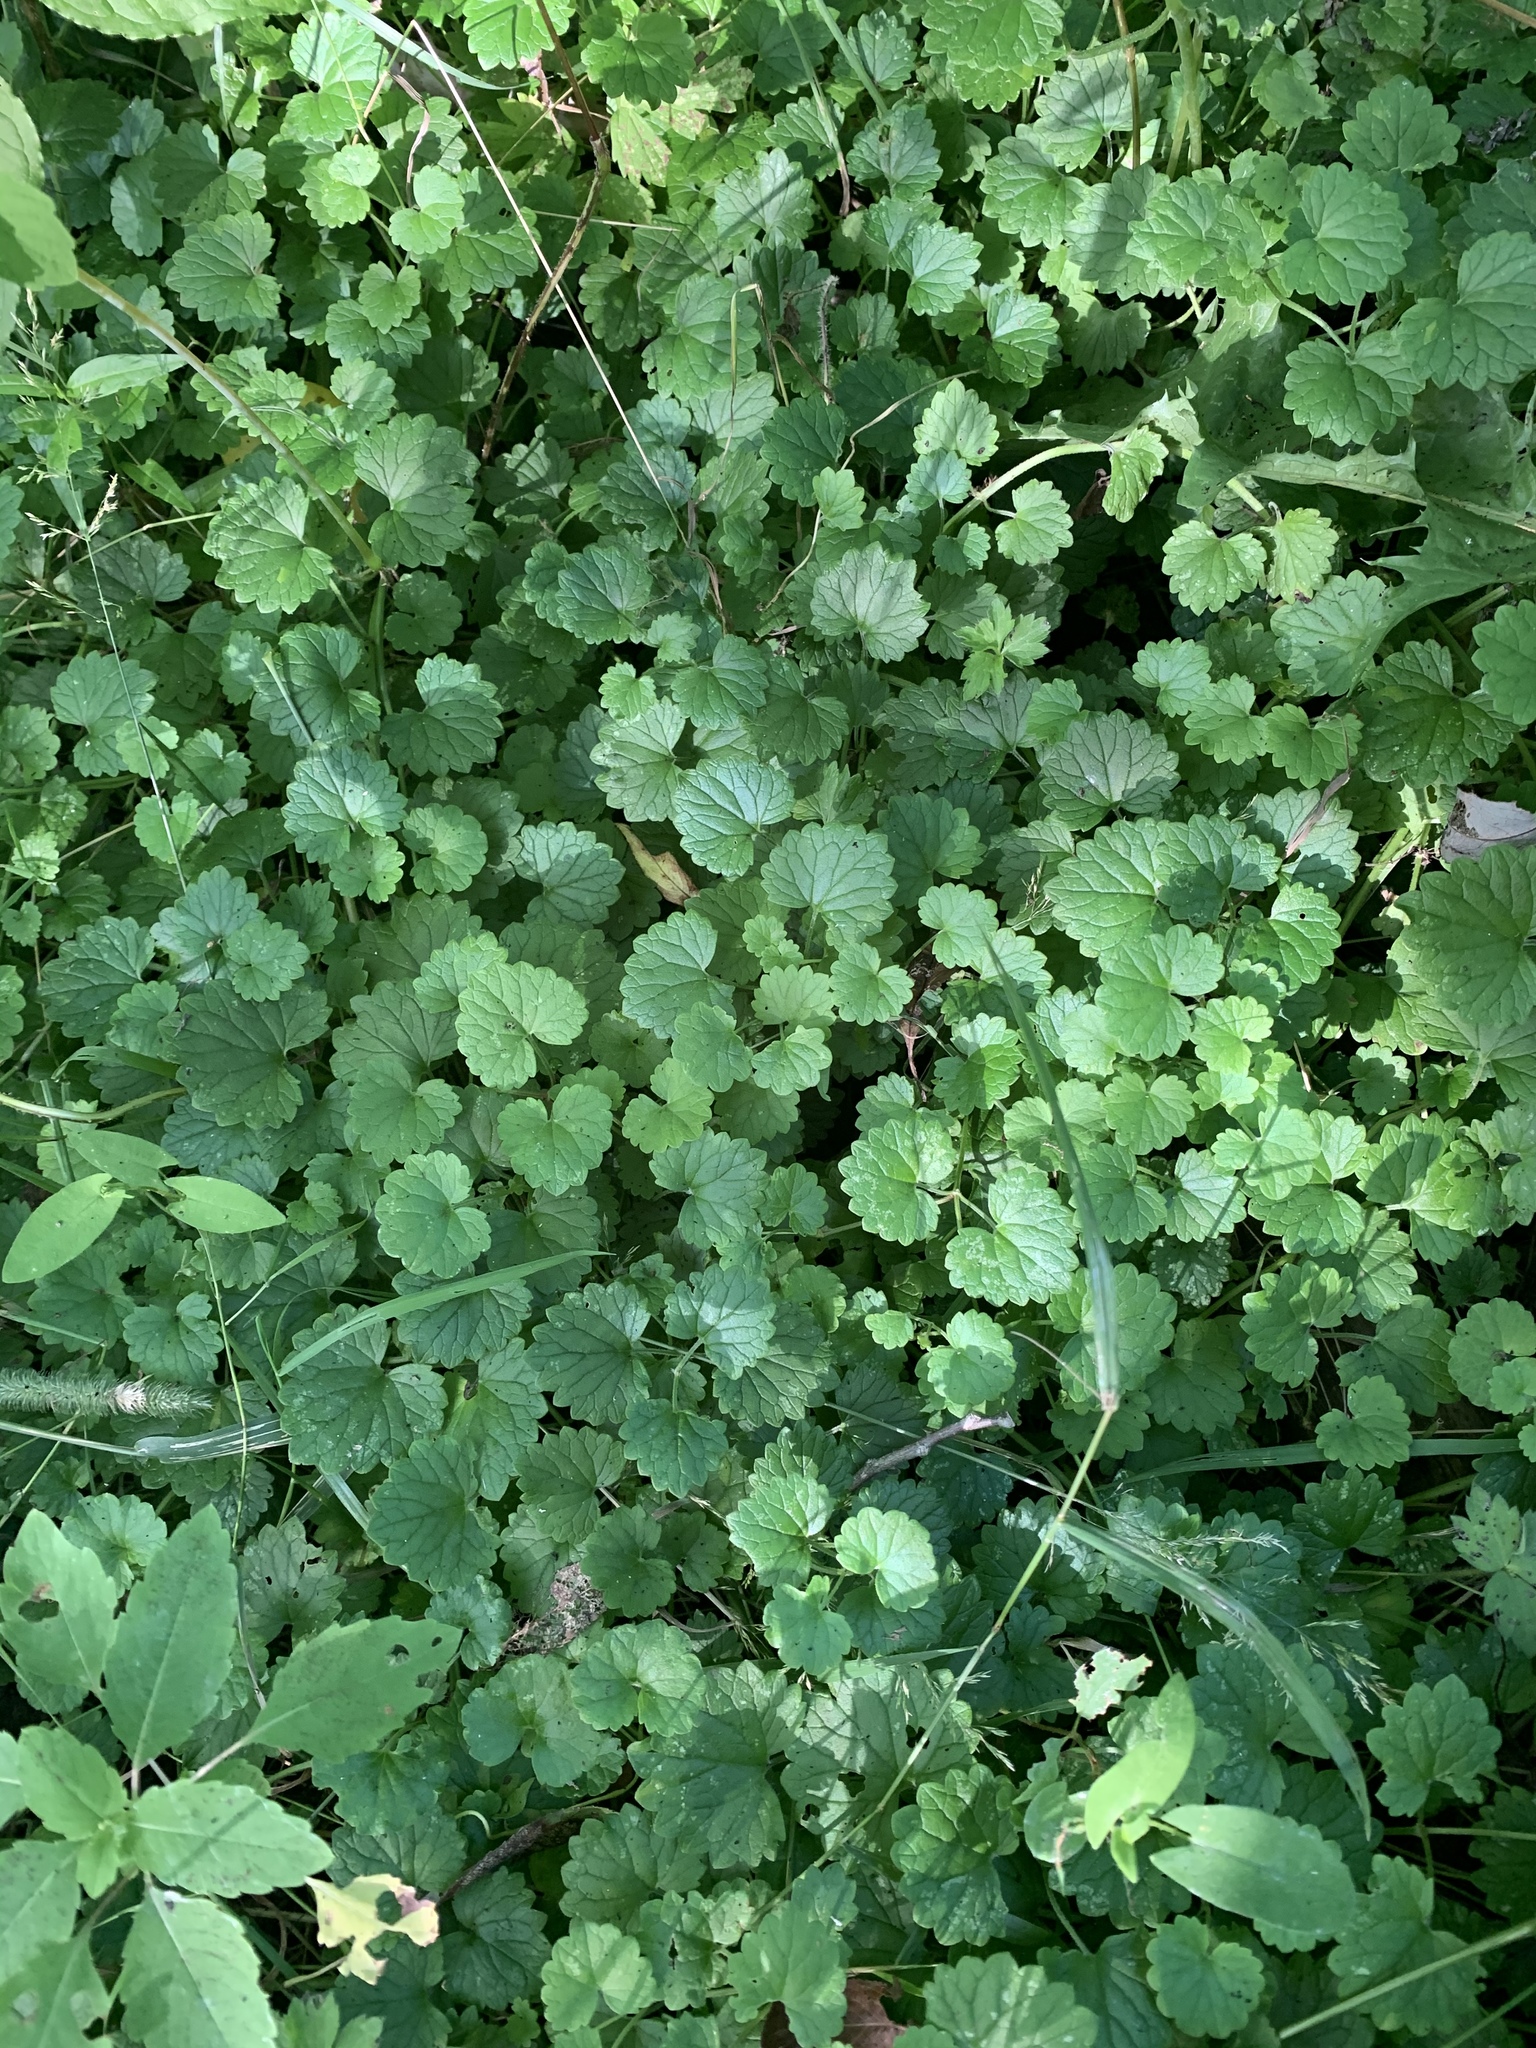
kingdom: Plantae
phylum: Tracheophyta
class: Magnoliopsida
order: Lamiales
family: Lamiaceae
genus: Glechoma
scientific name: Glechoma hederacea
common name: Ground ivy
